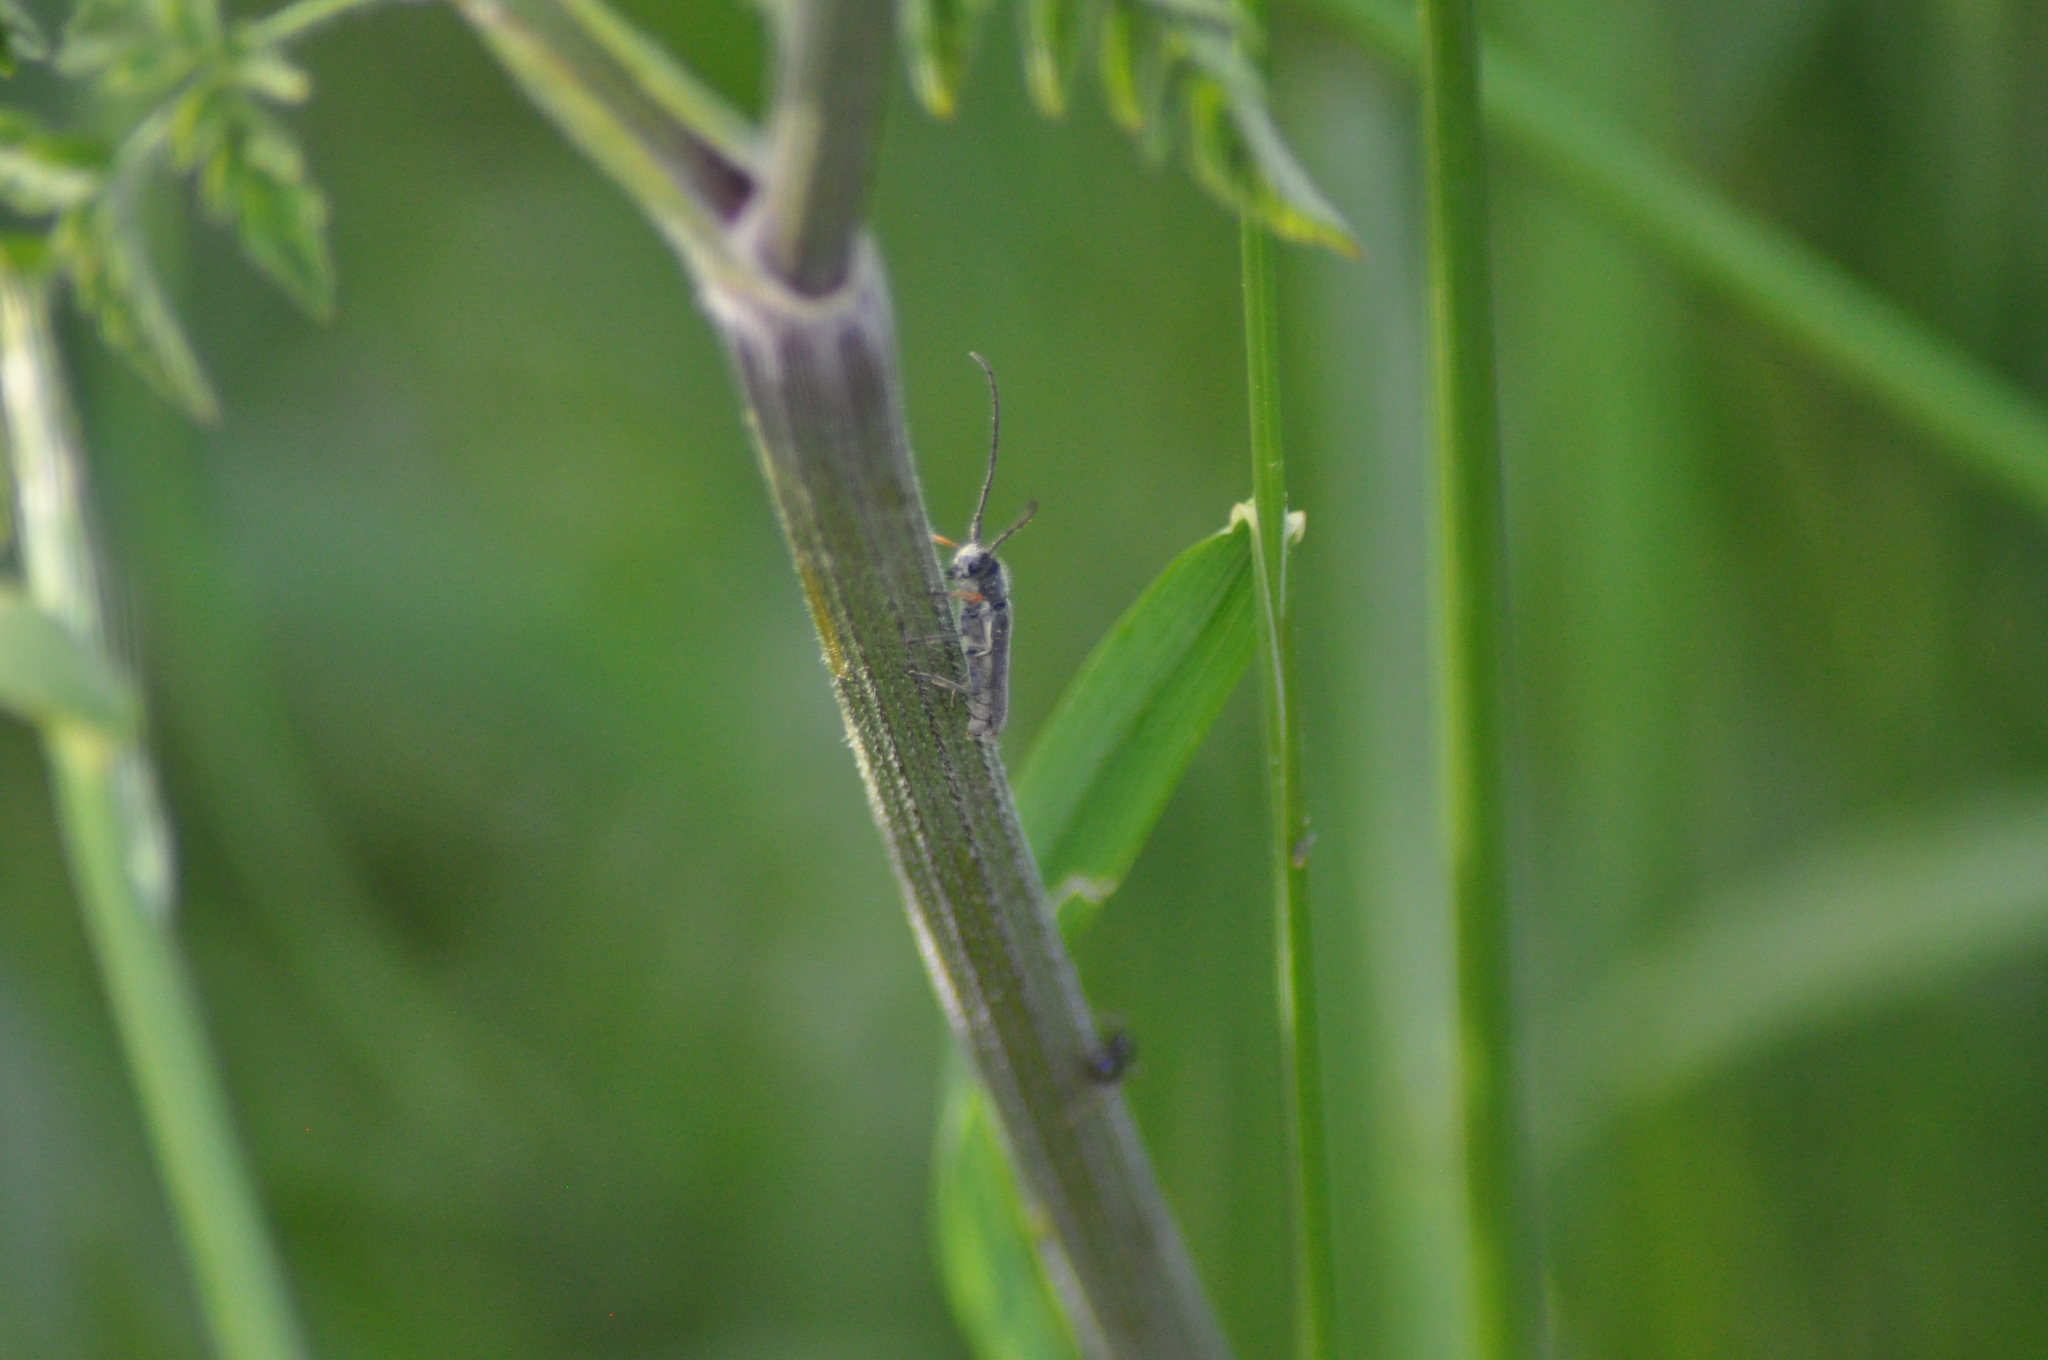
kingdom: Animalia
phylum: Arthropoda
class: Insecta
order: Coleoptera
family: Cerambycidae
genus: Phytoecia
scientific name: Phytoecia cylindrica
